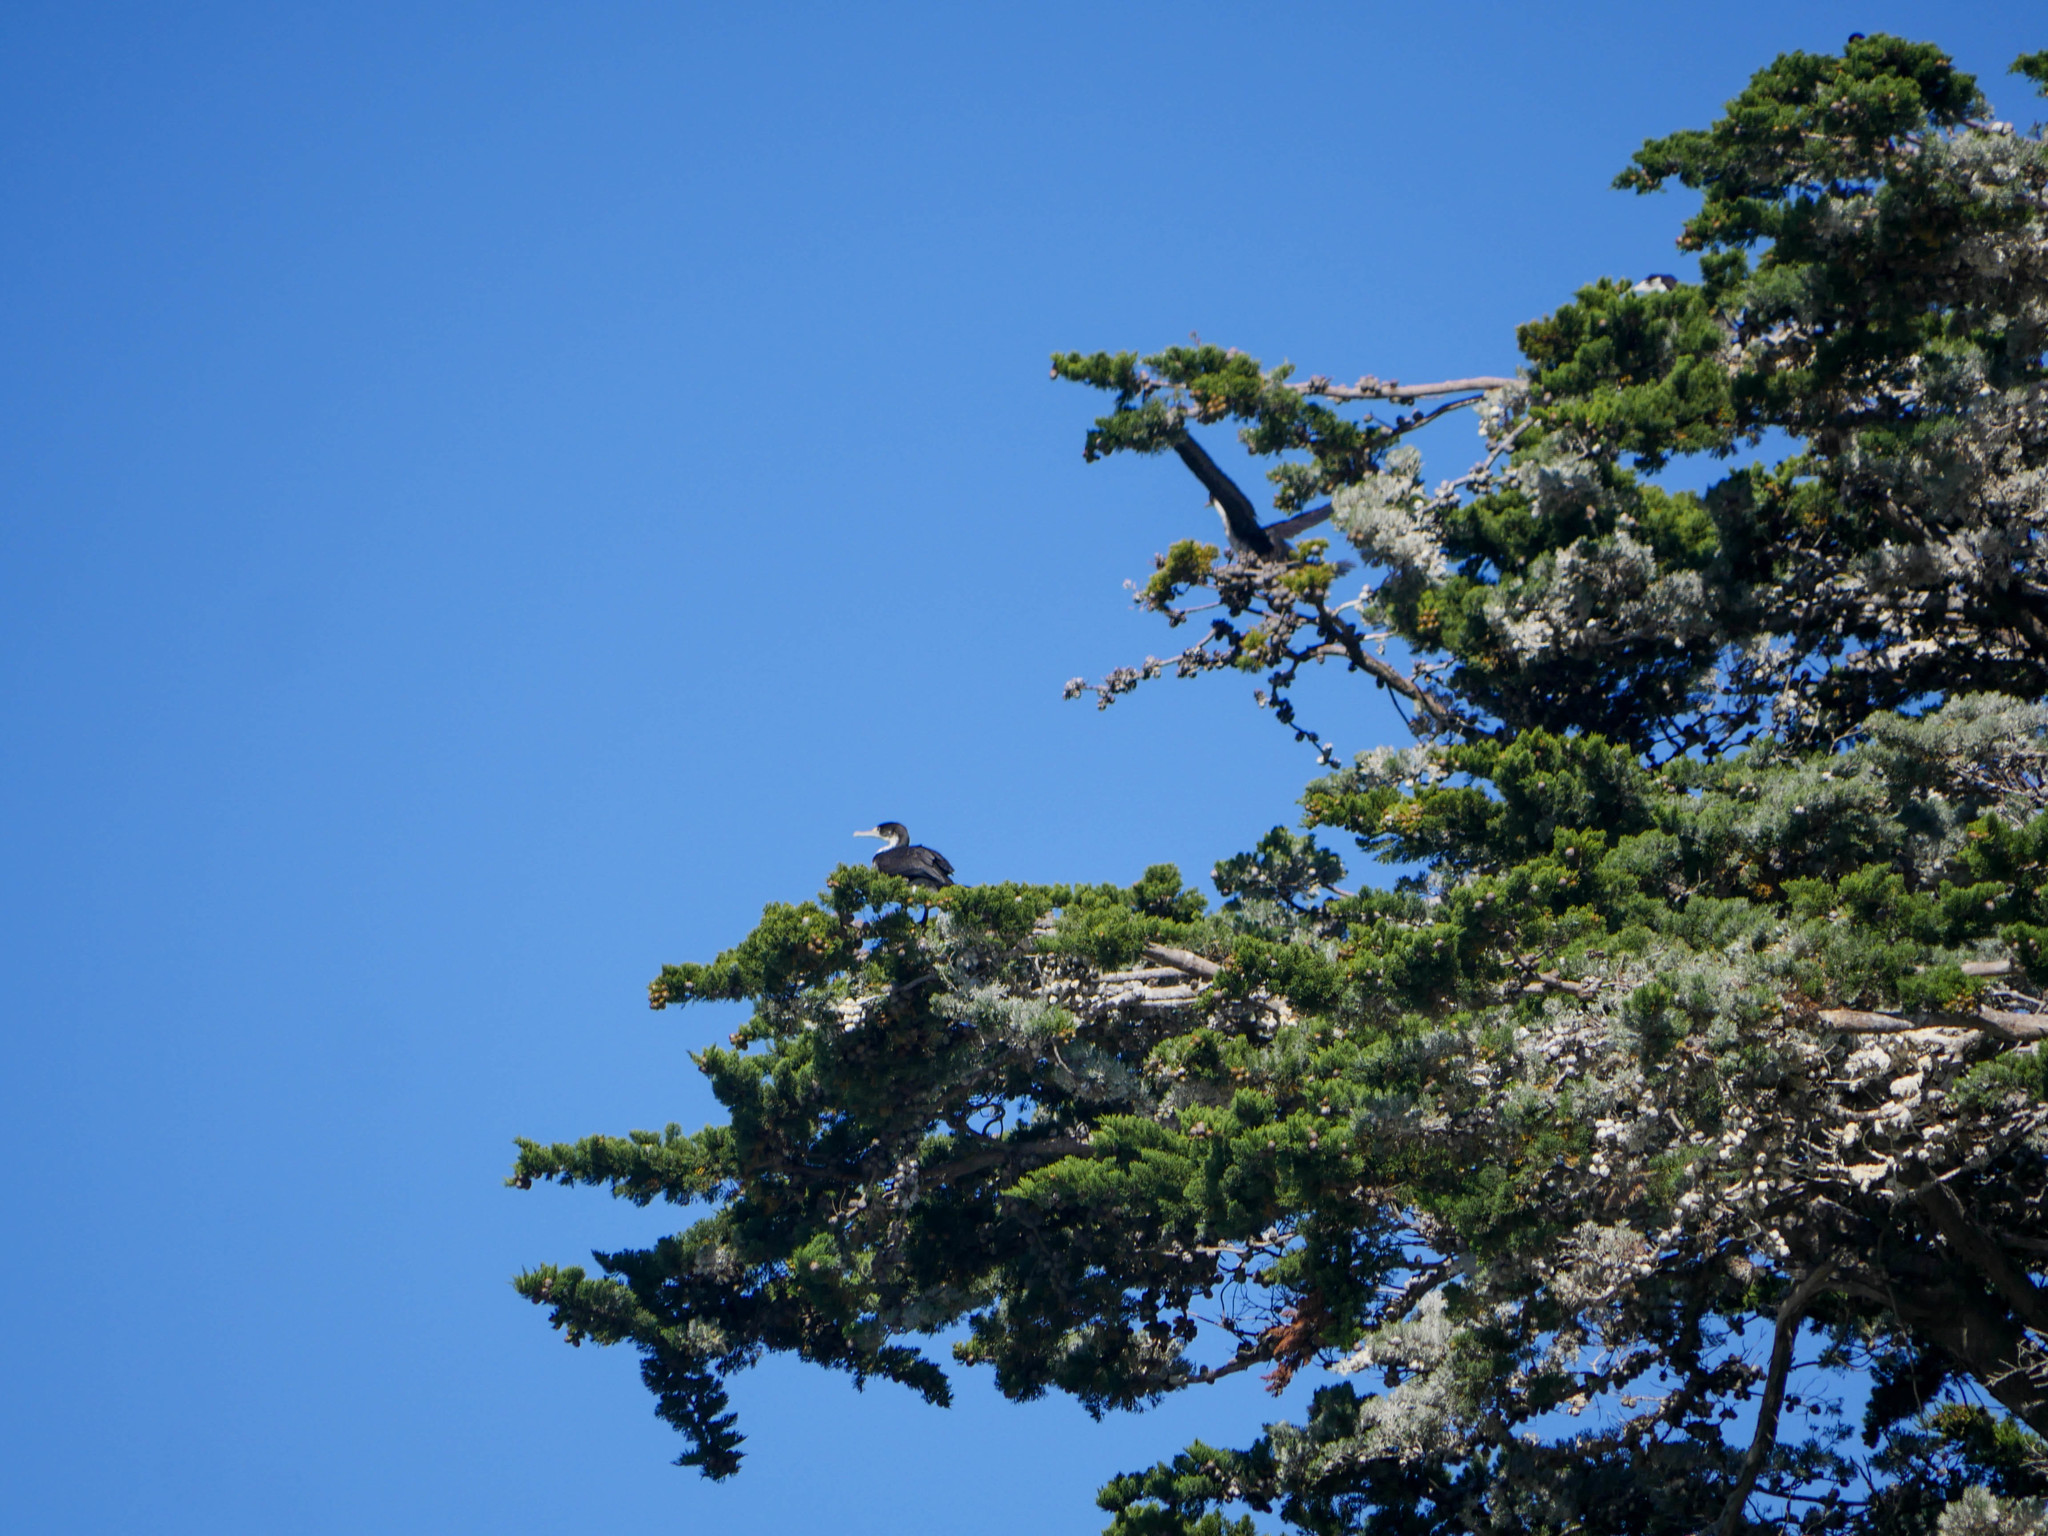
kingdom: Animalia
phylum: Chordata
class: Aves
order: Suliformes
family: Phalacrocoracidae
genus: Phalacrocorax
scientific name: Phalacrocorax varius
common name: Pied cormorant
